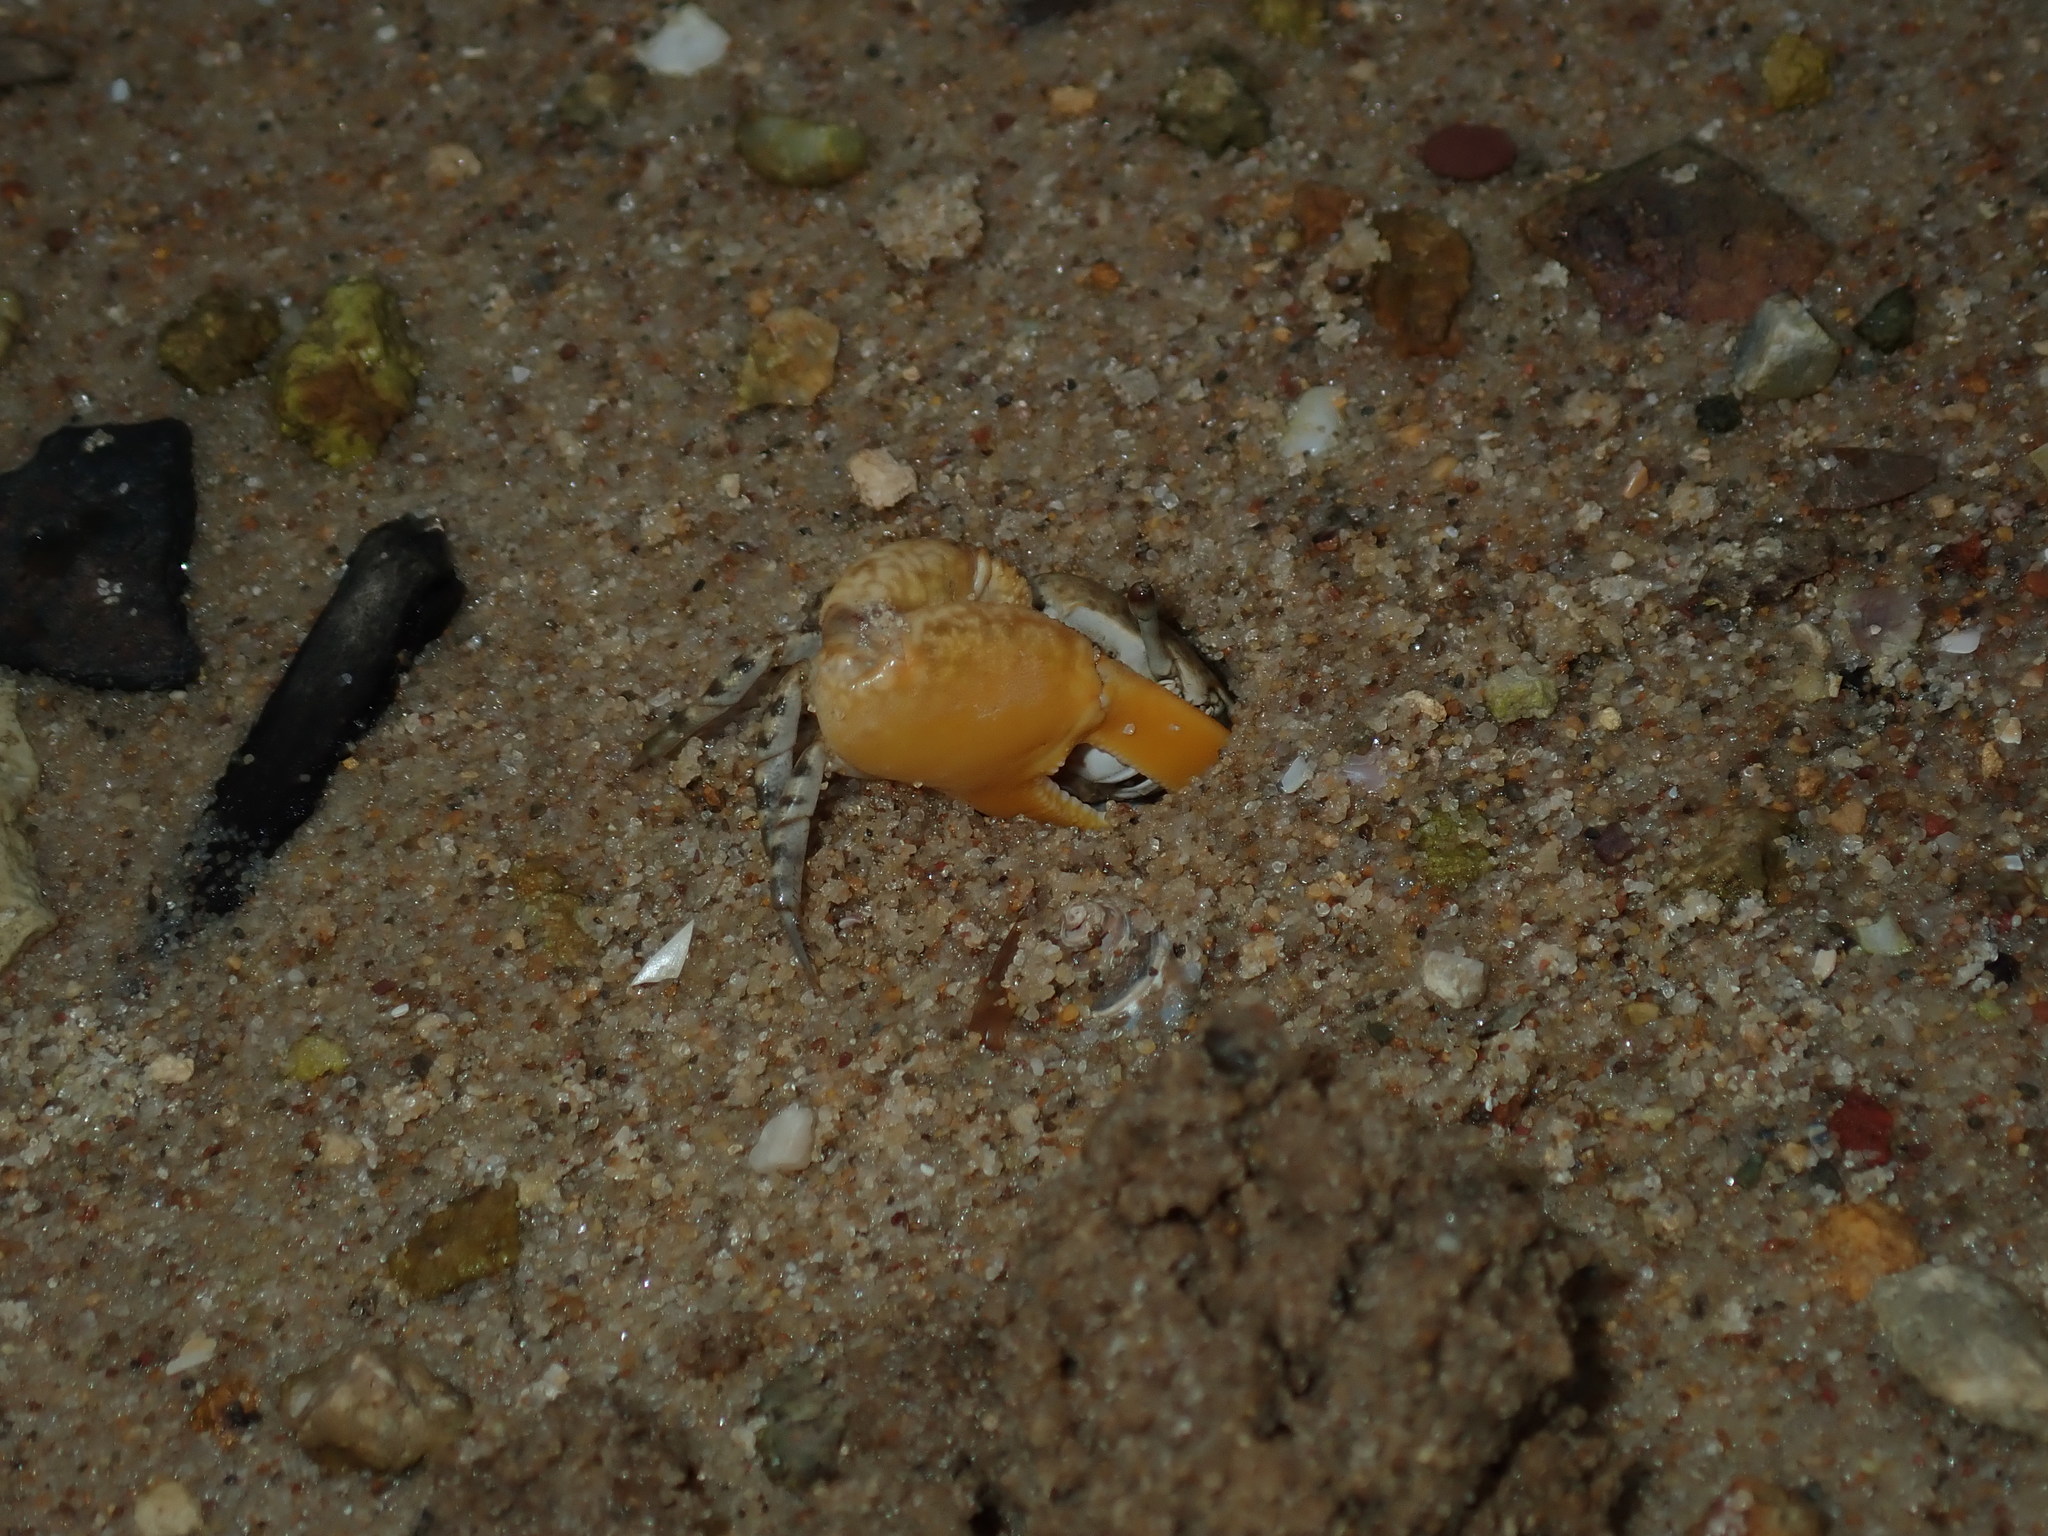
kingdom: Animalia
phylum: Arthropoda
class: Malacostraca
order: Decapoda
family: Ocypodidae
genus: Austruca
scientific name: Austruca perplexa
